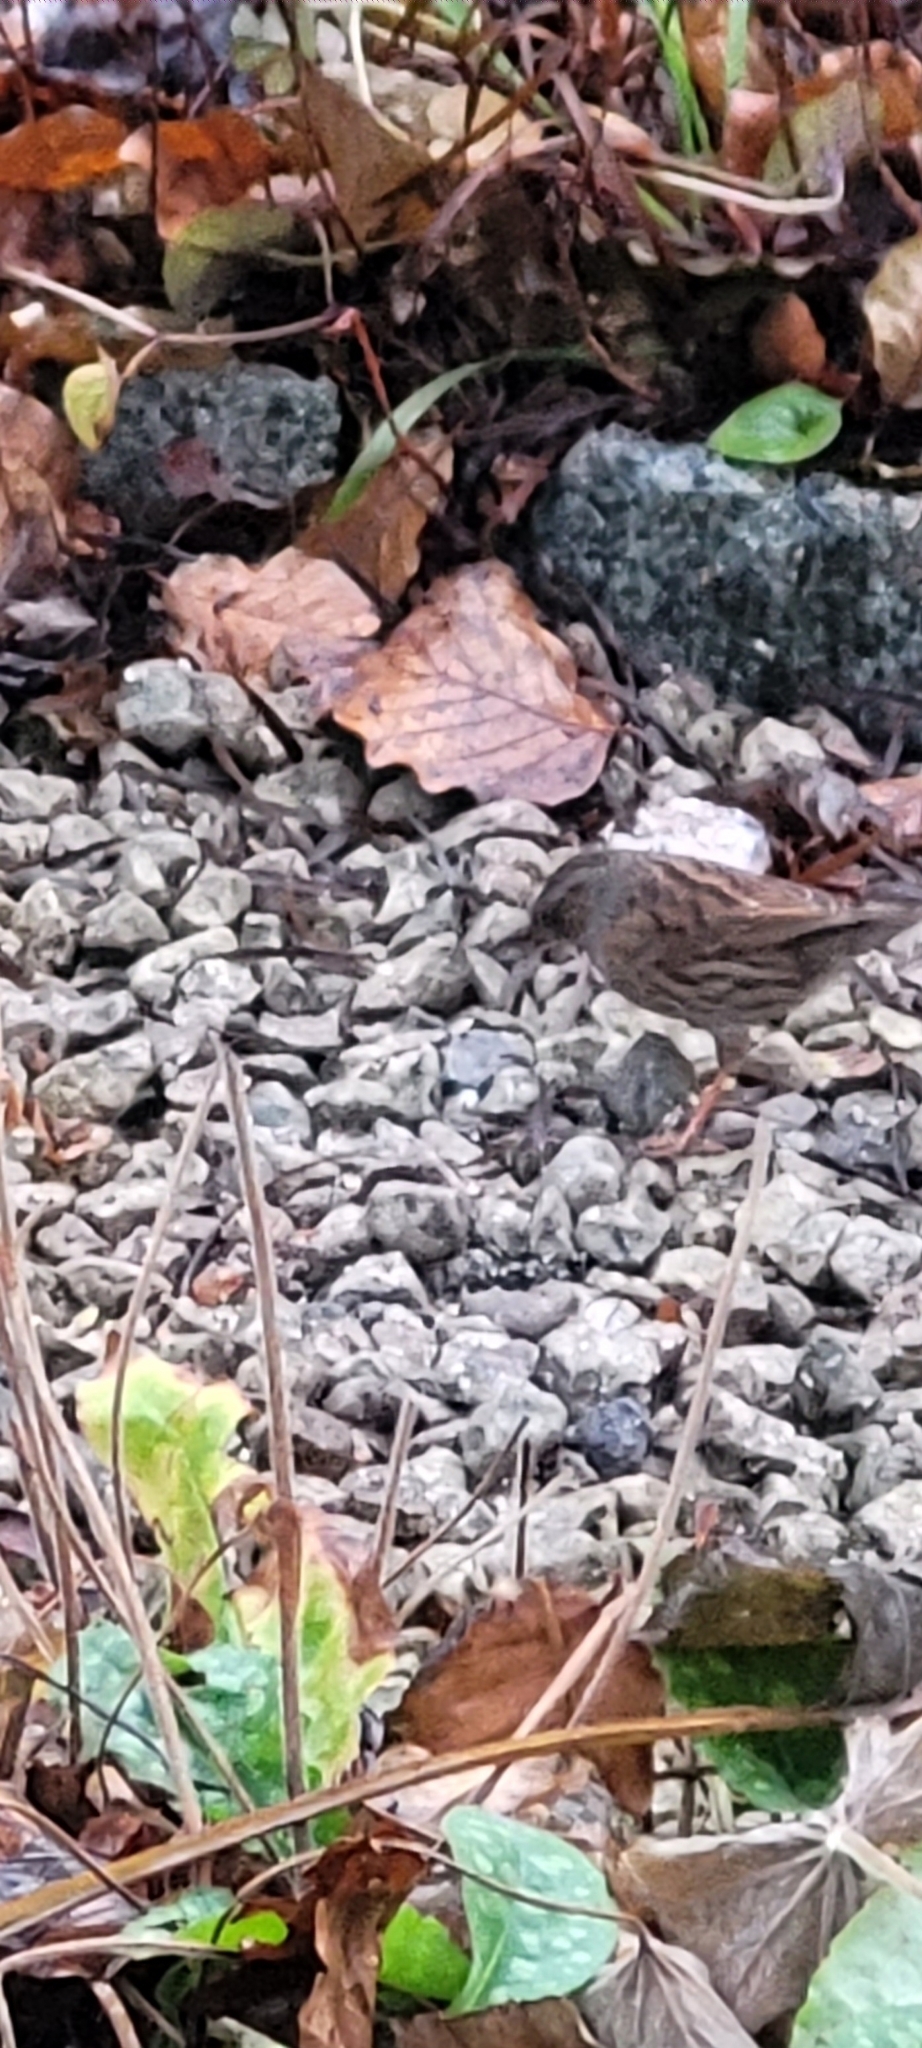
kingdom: Animalia
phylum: Chordata
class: Aves
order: Passeriformes
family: Prunellidae
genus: Prunella
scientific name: Prunella modularis
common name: Dunnock
